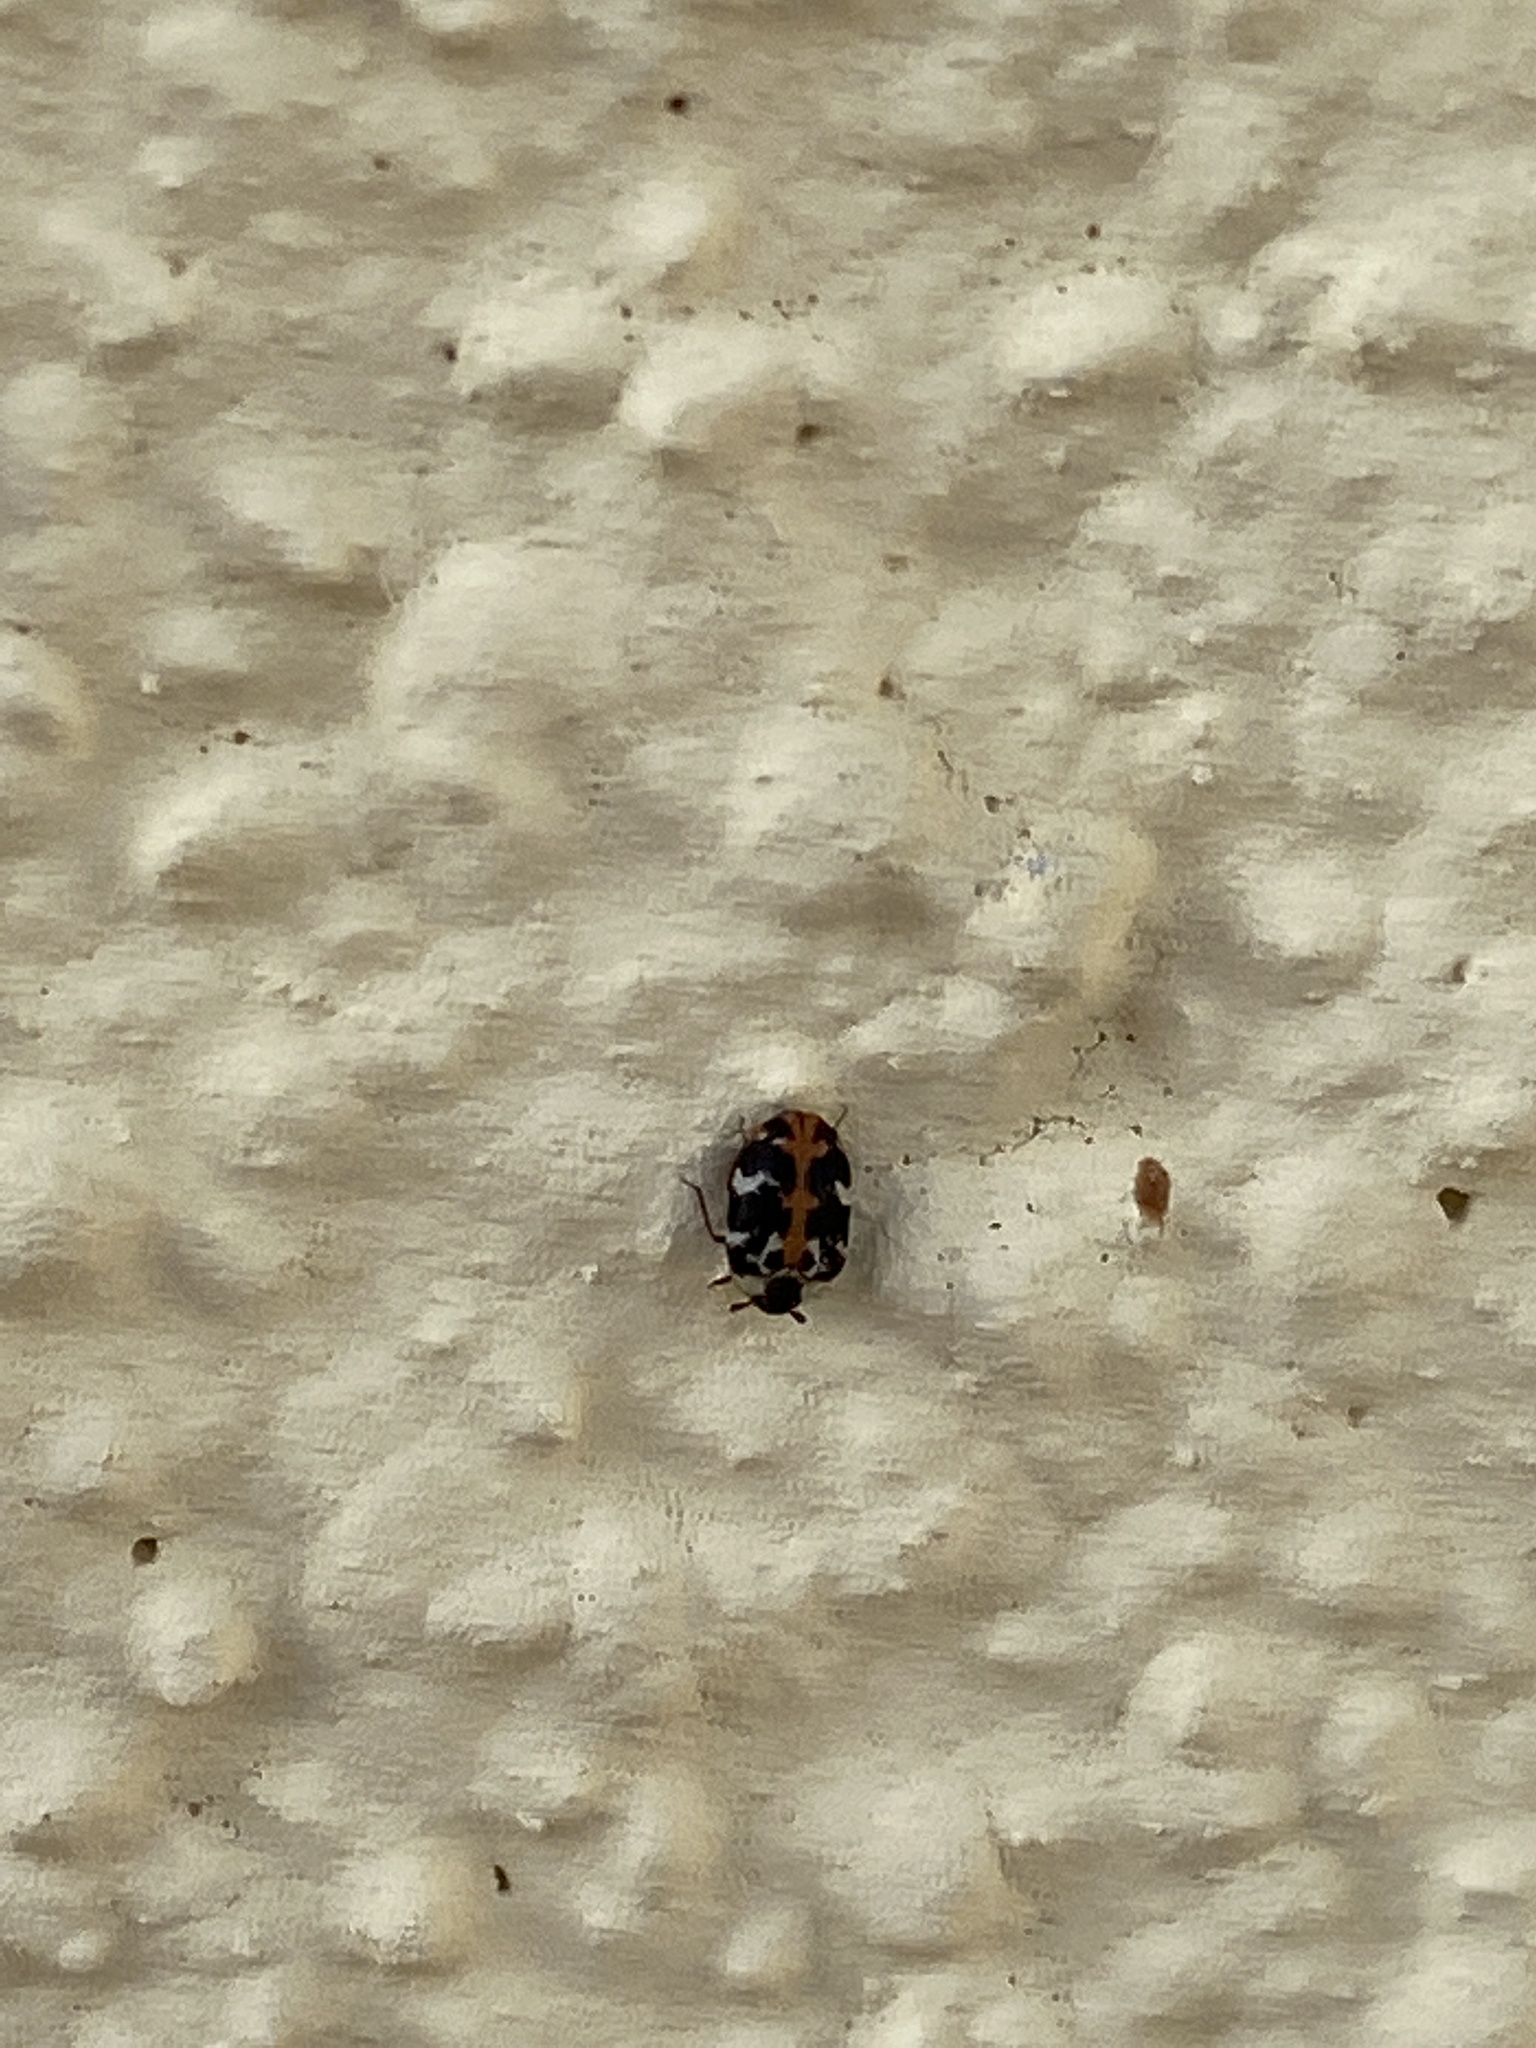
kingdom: Animalia
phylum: Arthropoda
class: Insecta
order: Coleoptera
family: Dermestidae
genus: Anthrenus
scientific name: Anthrenus scrophulariae
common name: Buffalo carpet beetle
